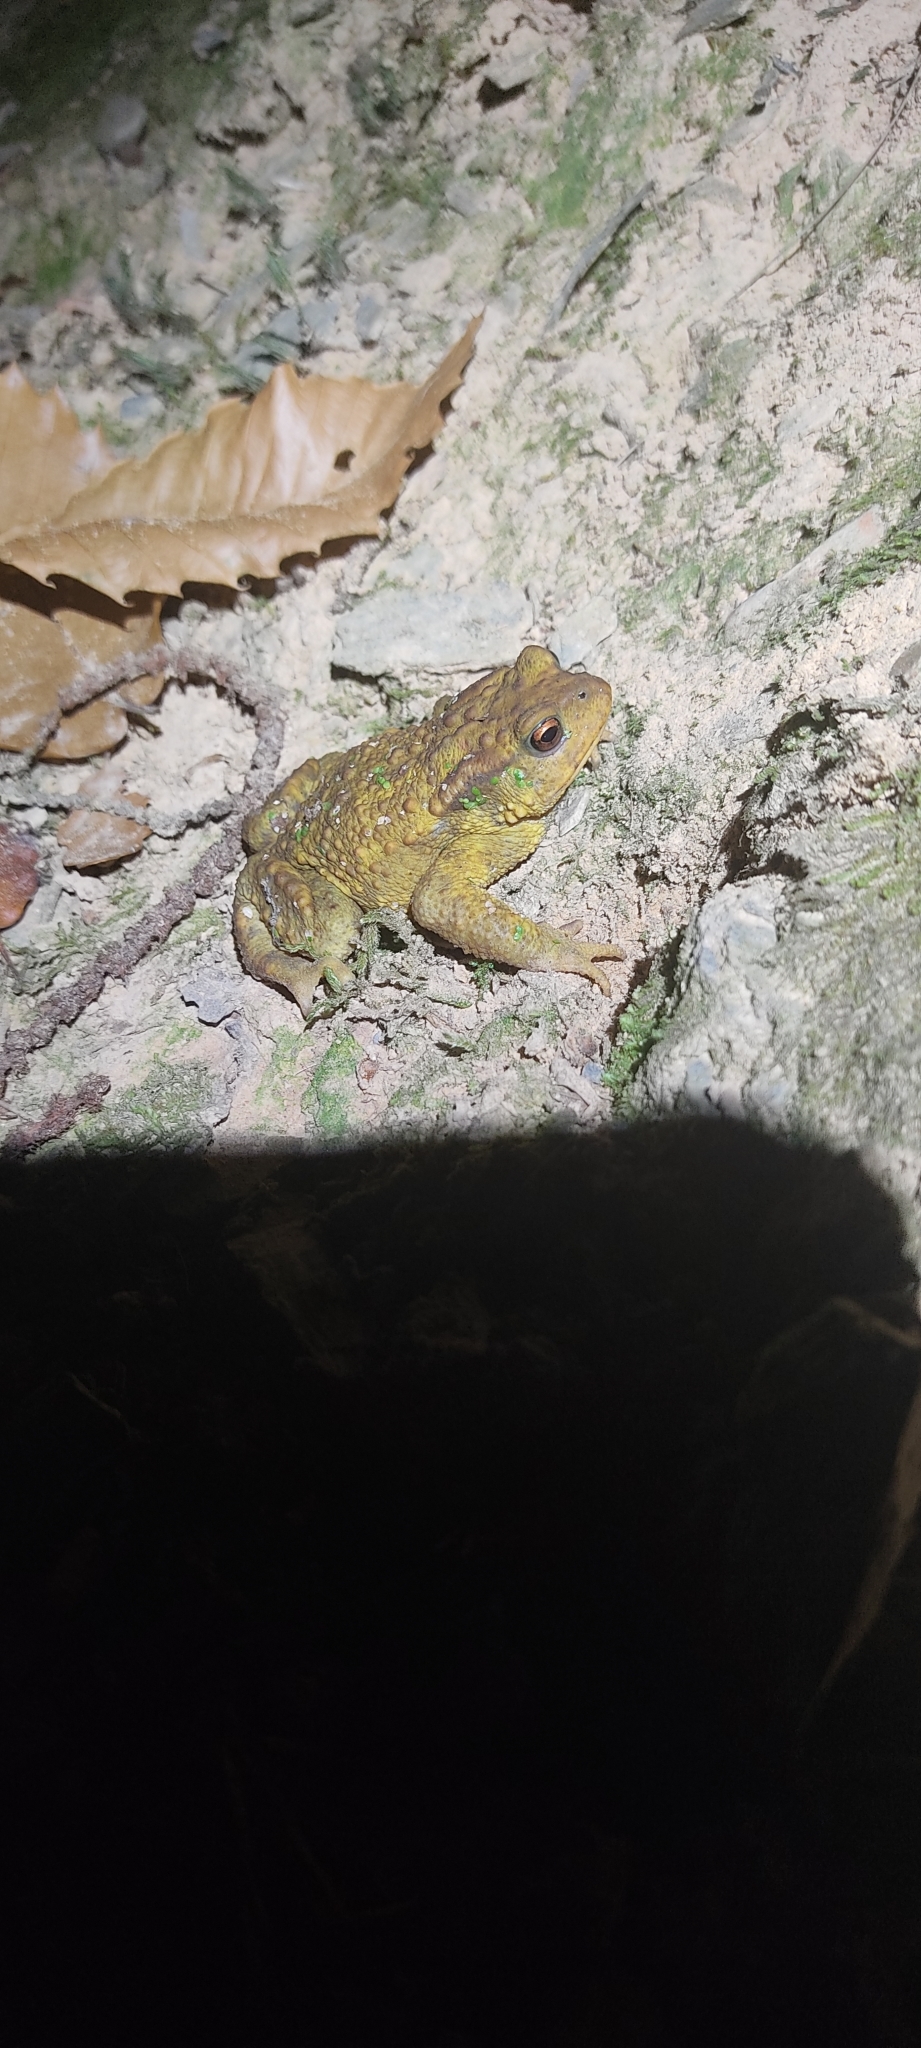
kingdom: Animalia
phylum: Chordata
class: Amphibia
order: Anura
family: Bufonidae
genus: Bufo
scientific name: Bufo spinosus
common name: Western common toad
